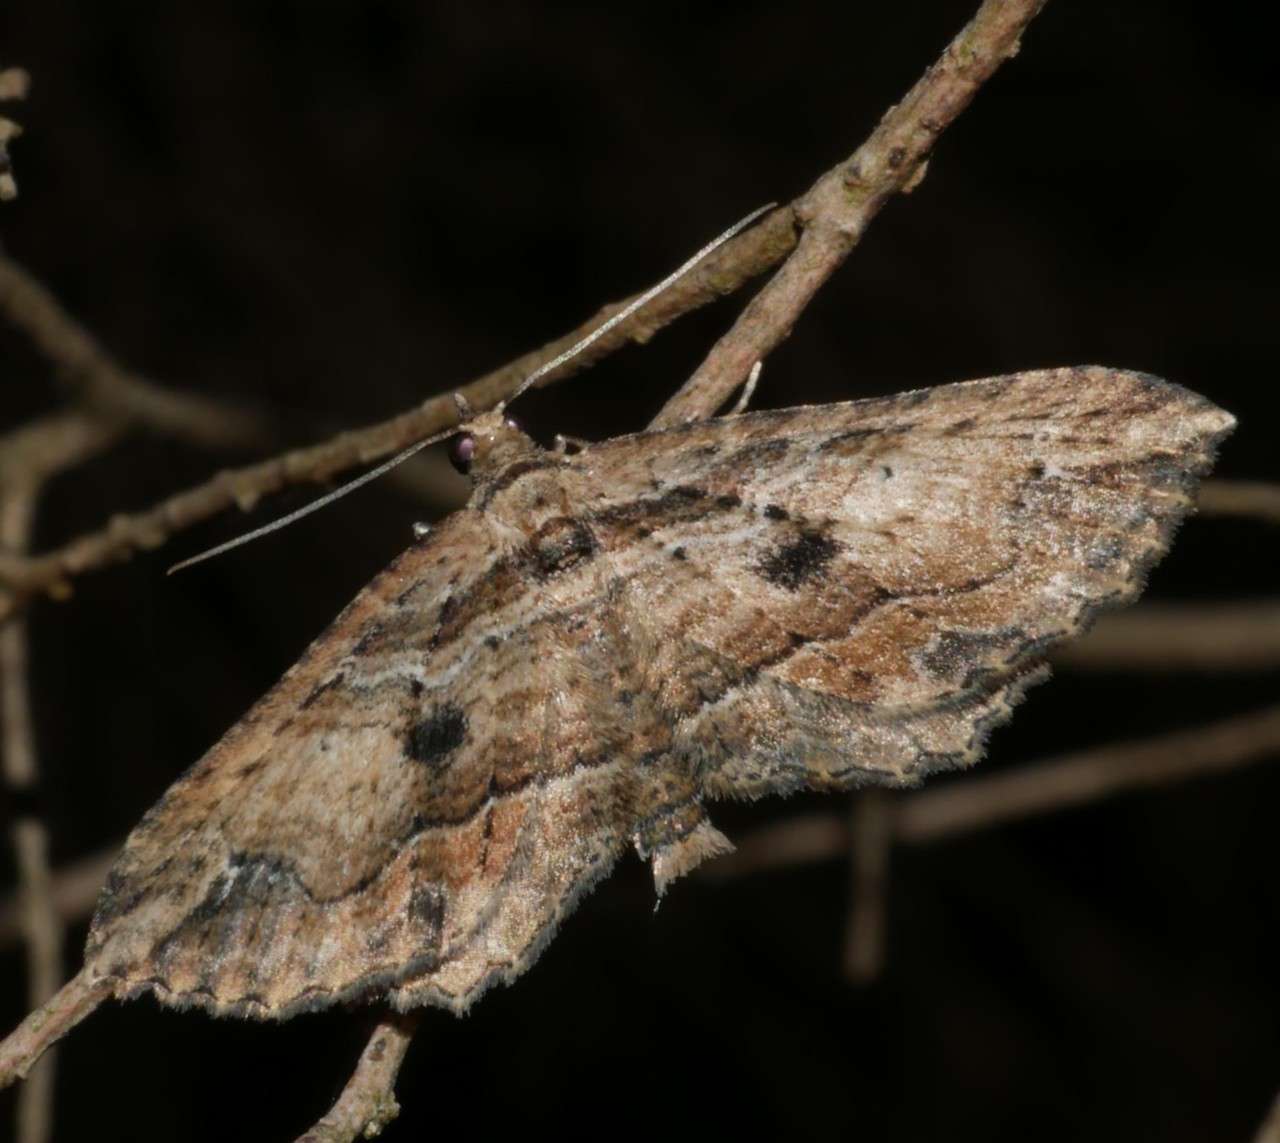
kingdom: Animalia
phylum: Arthropoda
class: Insecta
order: Lepidoptera
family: Geometridae
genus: Chrysolarentia
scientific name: Chrysolarentia leucophanes
